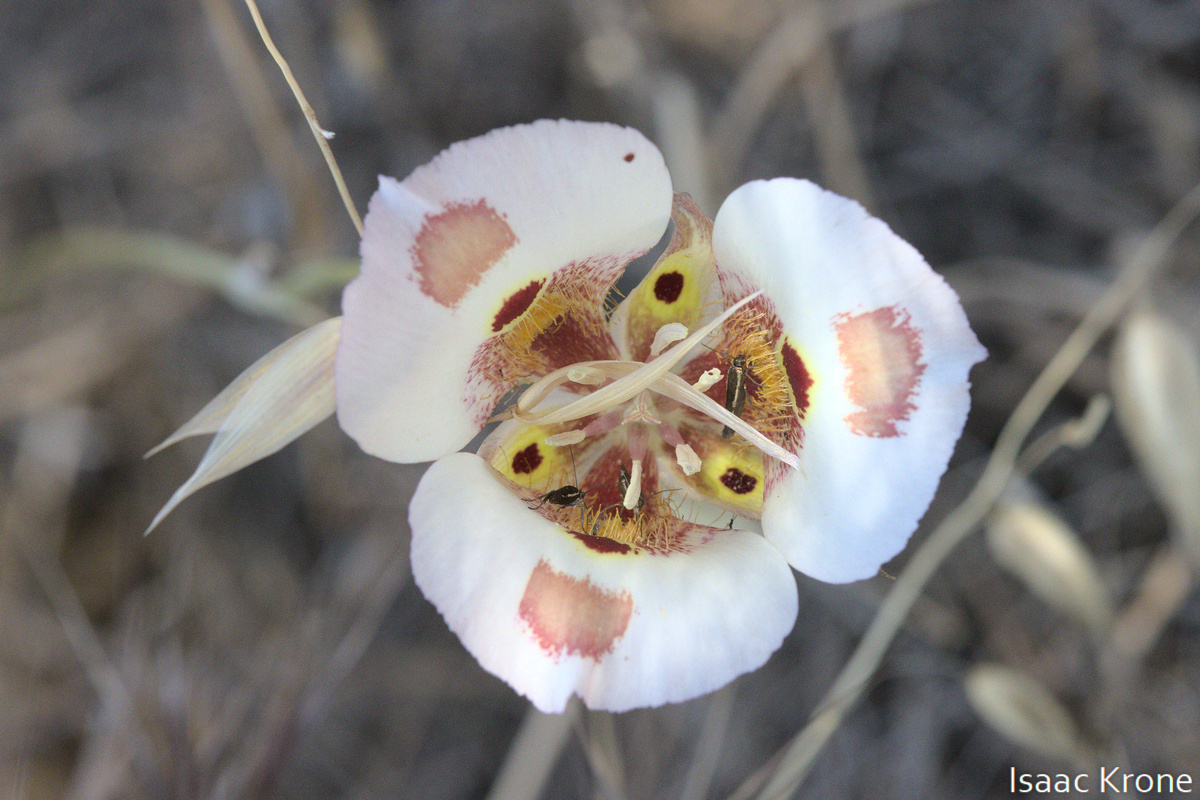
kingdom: Plantae
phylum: Tracheophyta
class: Liliopsida
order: Liliales
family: Liliaceae
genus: Calochortus
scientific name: Calochortus venustus
